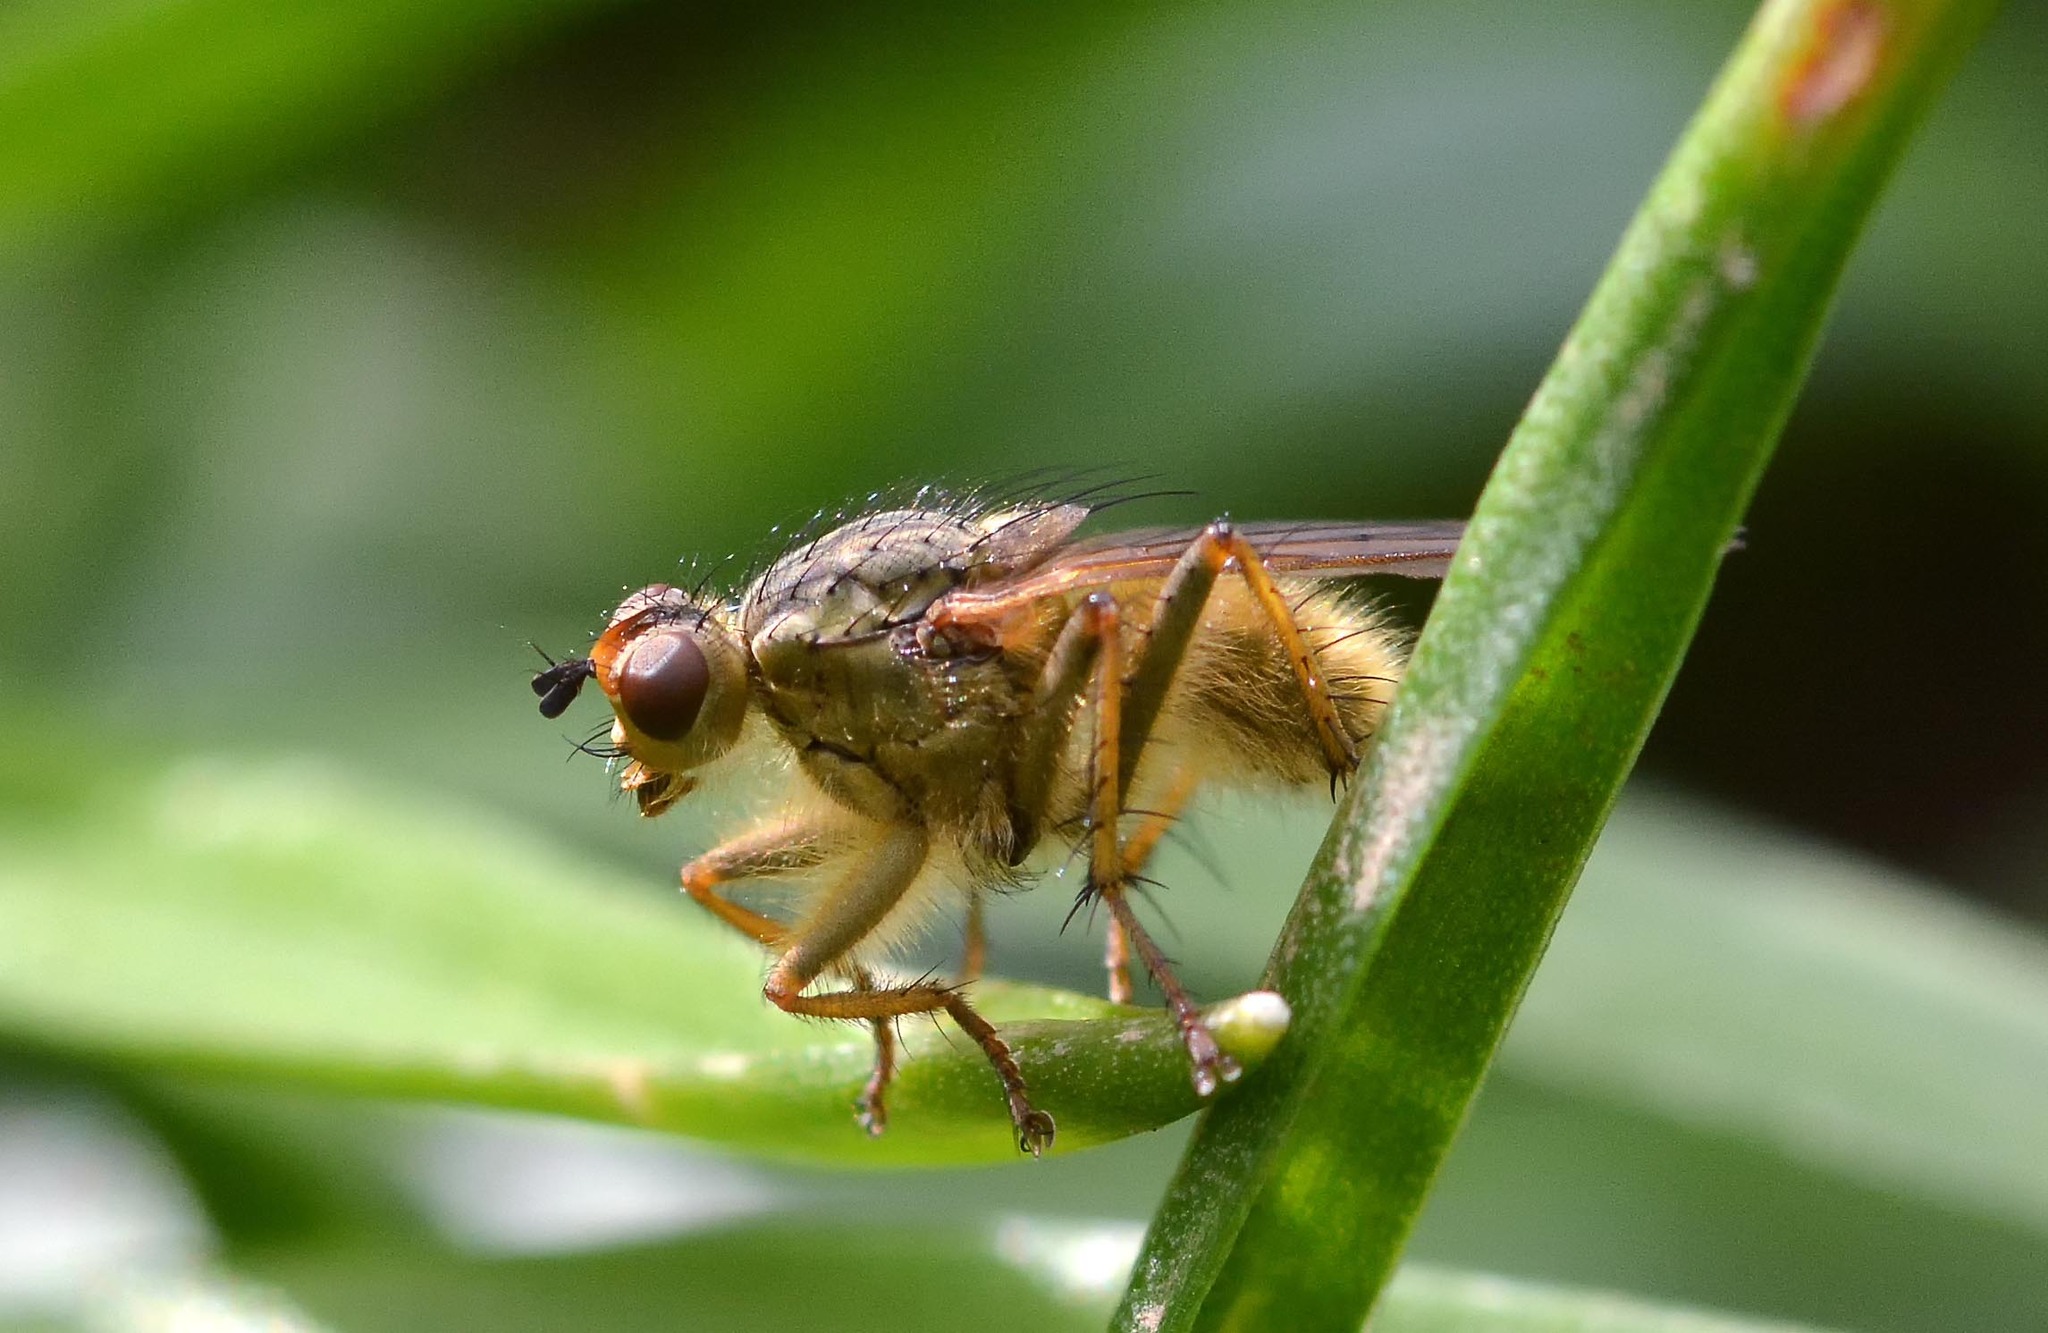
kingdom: Animalia
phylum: Arthropoda
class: Insecta
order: Diptera
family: Scathophagidae
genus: Scathophaga
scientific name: Scathophaga stercoraria
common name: Yellow dung fly
